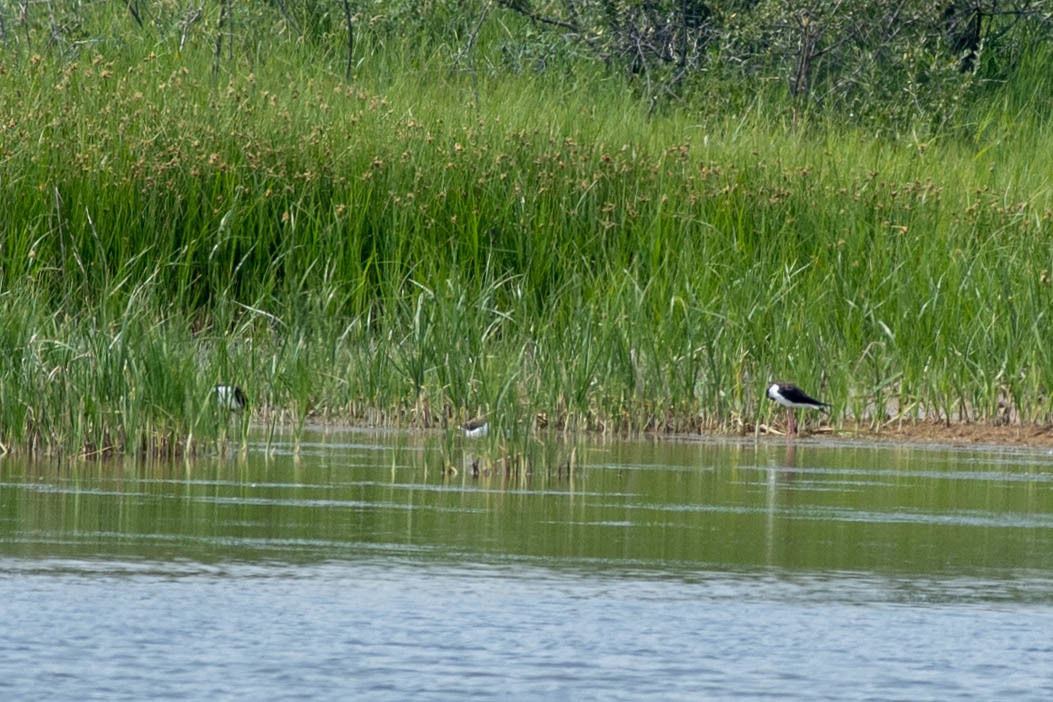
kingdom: Animalia
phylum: Chordata
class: Aves
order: Charadriiformes
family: Recurvirostridae
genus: Himantopus
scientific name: Himantopus mexicanus
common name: Black-necked stilt
